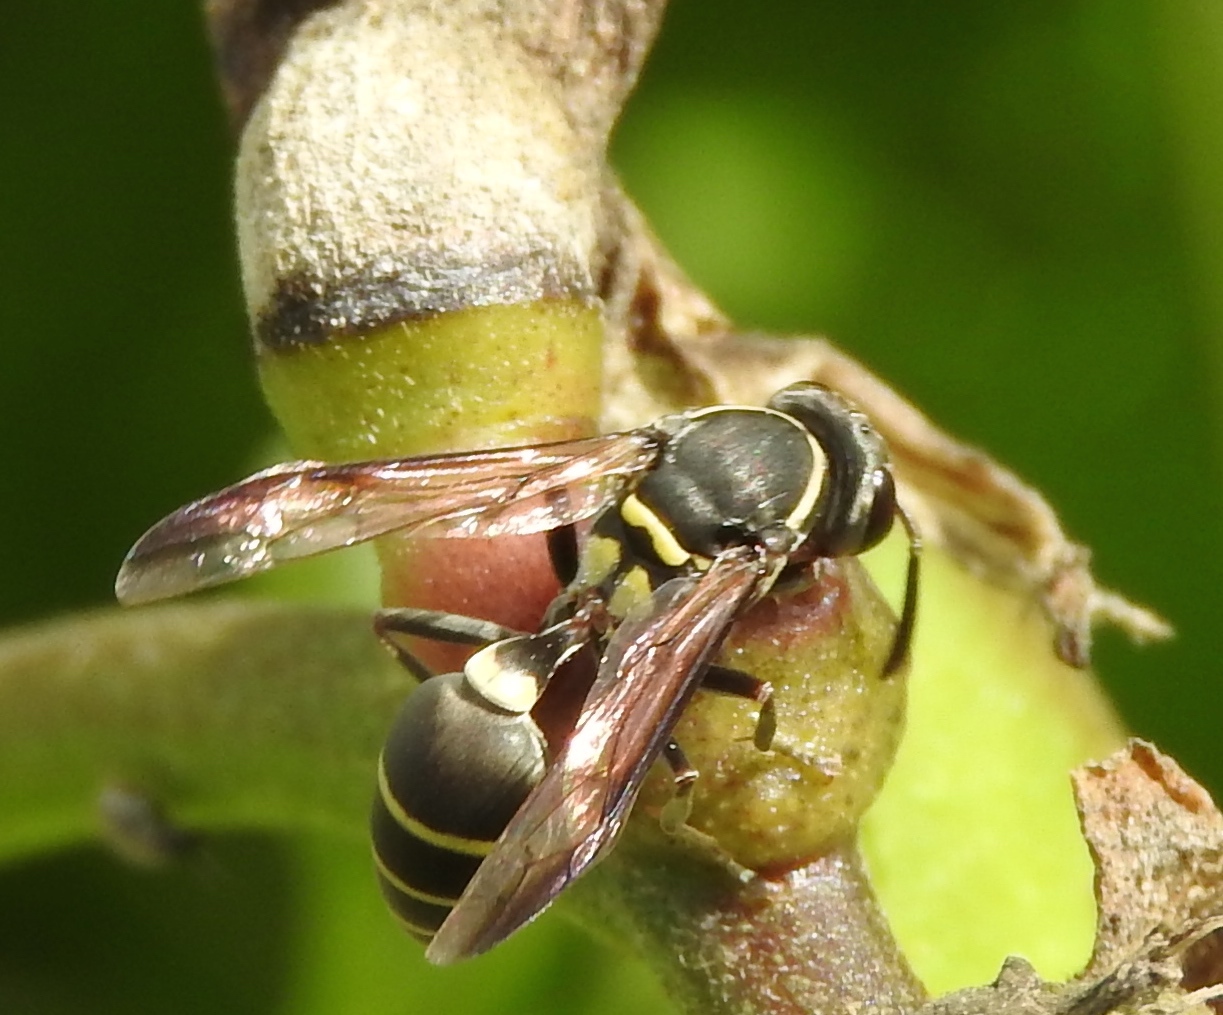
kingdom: Animalia
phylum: Arthropoda
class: Insecta
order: Hymenoptera
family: Eumenidae
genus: Polybia
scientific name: Polybia
